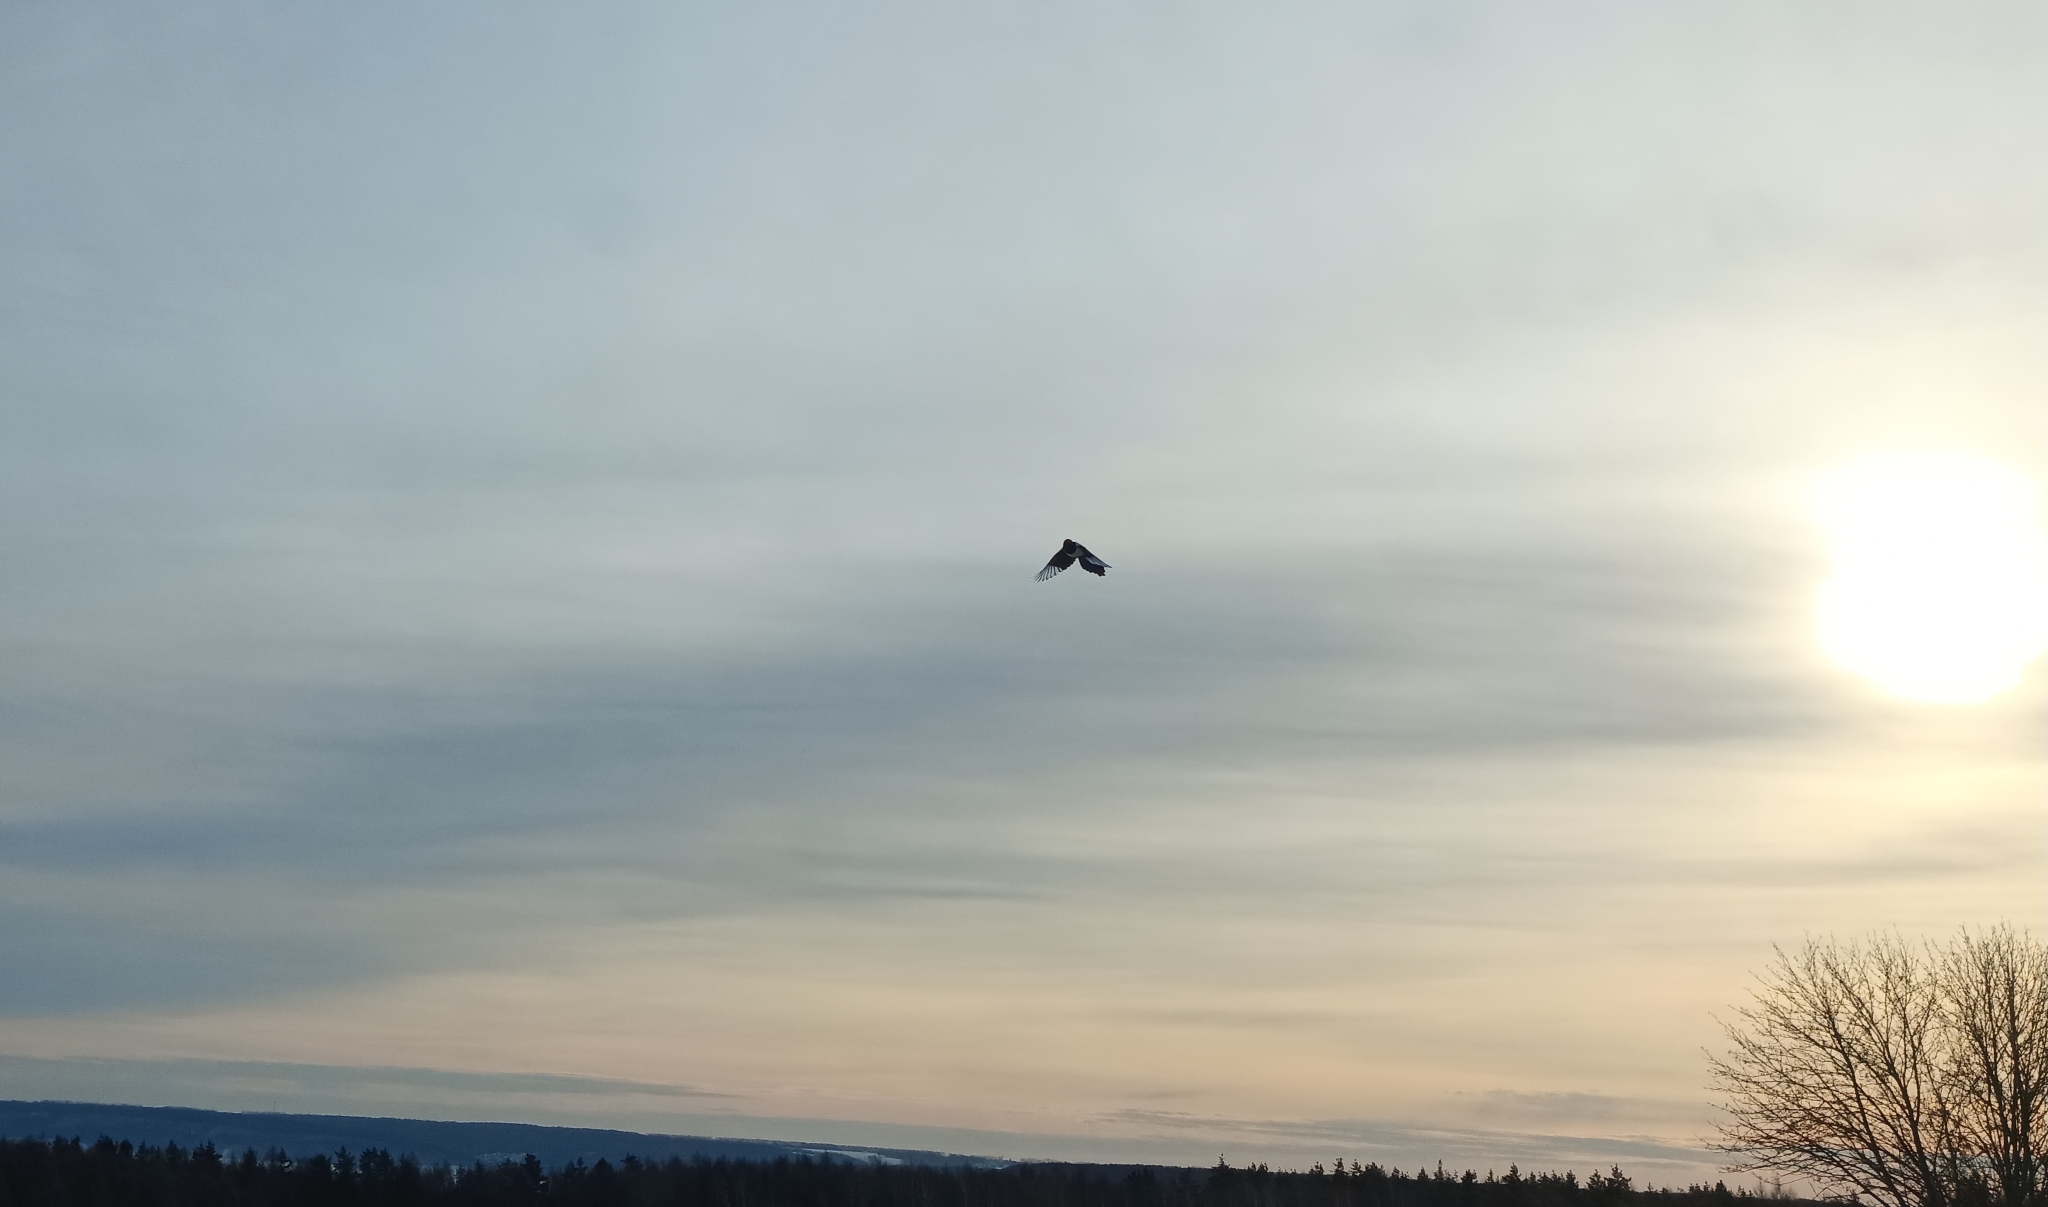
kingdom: Animalia
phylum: Chordata
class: Aves
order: Passeriformes
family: Corvidae
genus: Pica
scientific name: Pica pica
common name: Eurasian magpie
